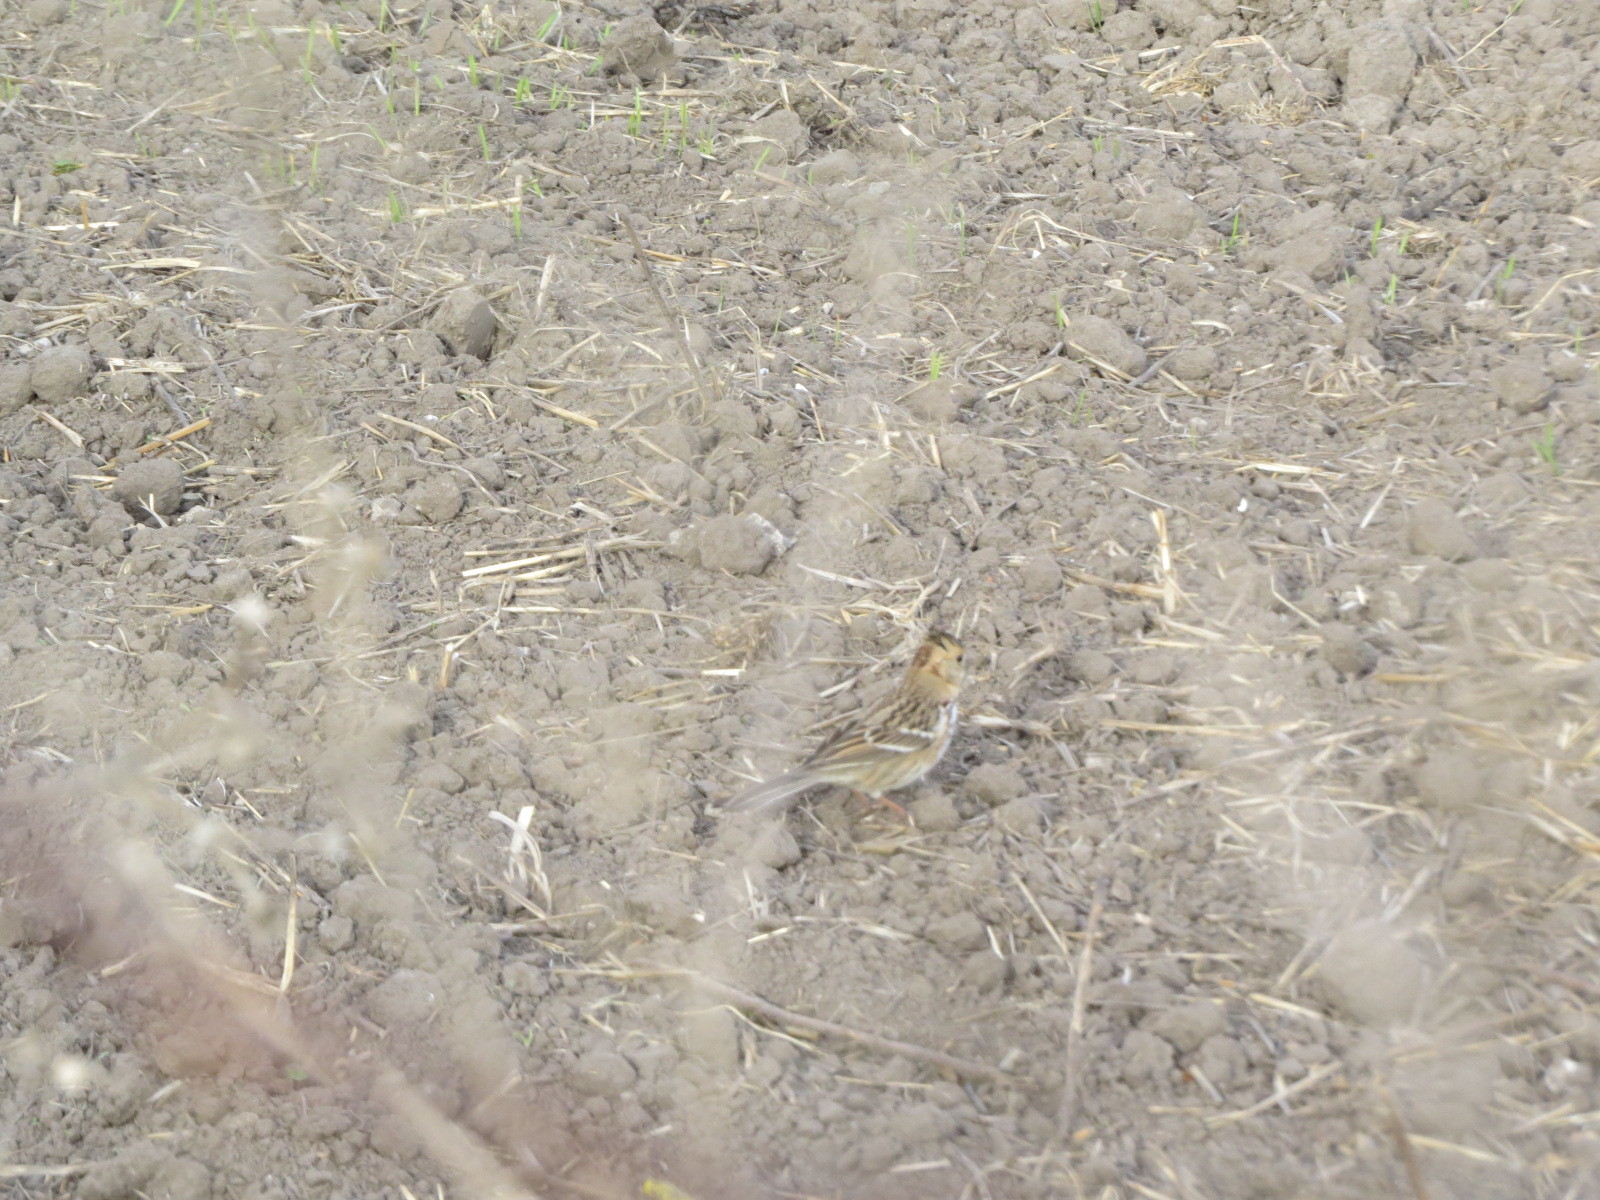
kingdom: Animalia
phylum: Chordata
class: Aves
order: Passeriformes
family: Passerellidae
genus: Zonotrichia
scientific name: Zonotrichia querula
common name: Harris's sparrow
